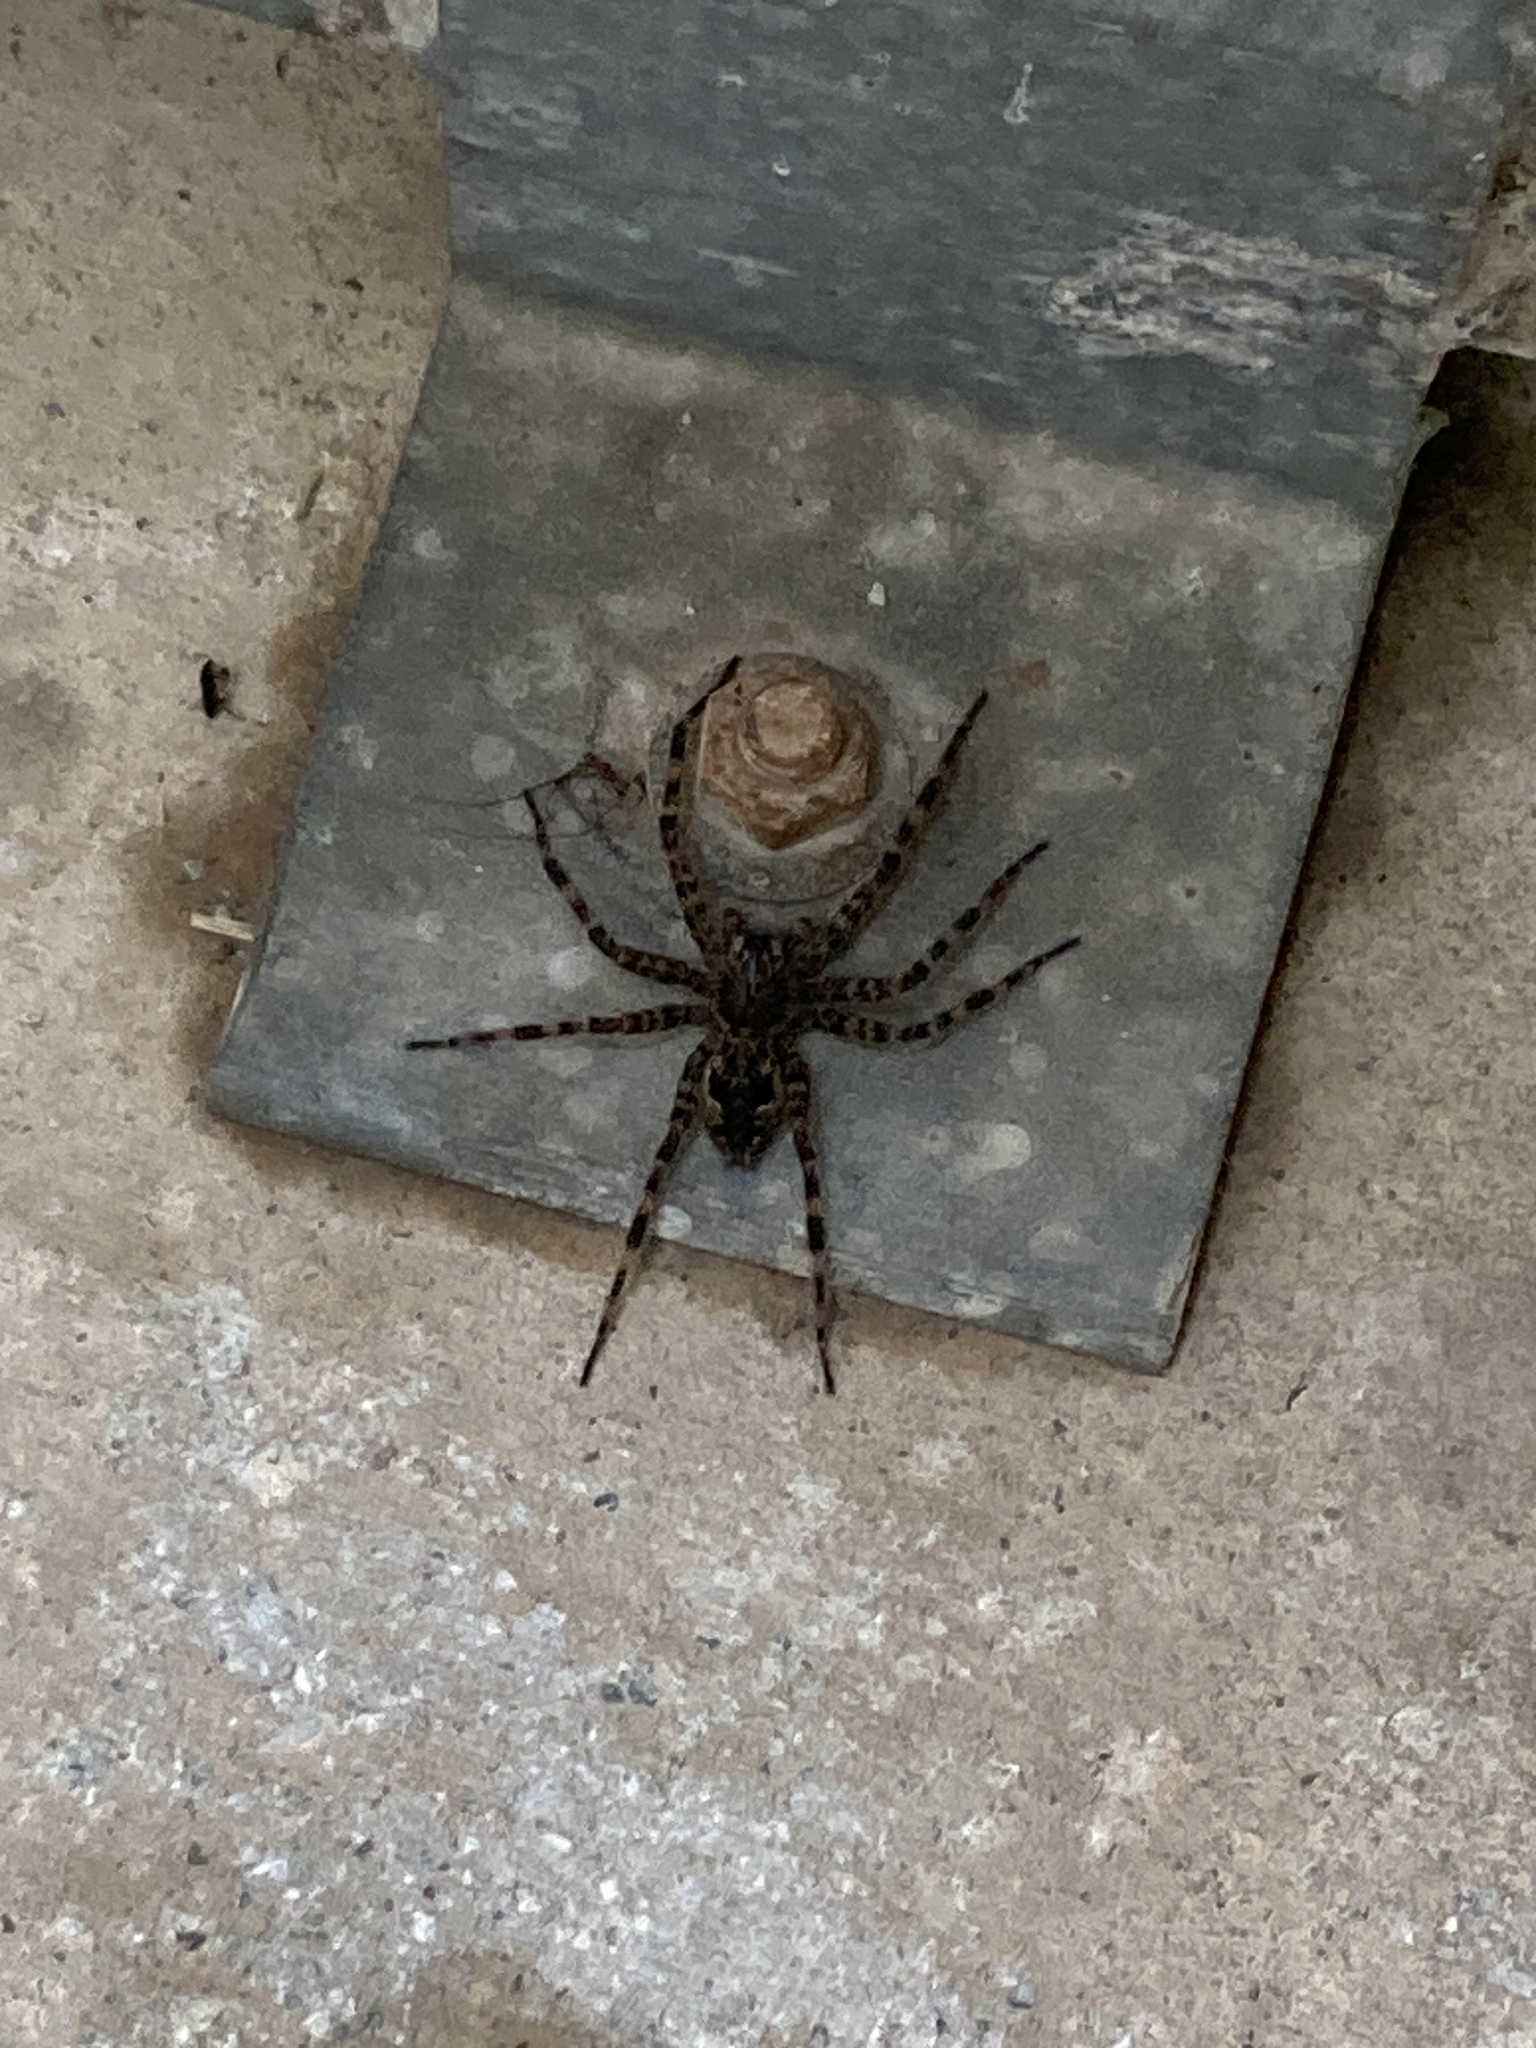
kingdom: Animalia
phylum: Arthropoda
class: Arachnida
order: Araneae
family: Pisauridae
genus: Dolomedes
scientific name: Dolomedes tenebrosus
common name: Dark fishing spider
